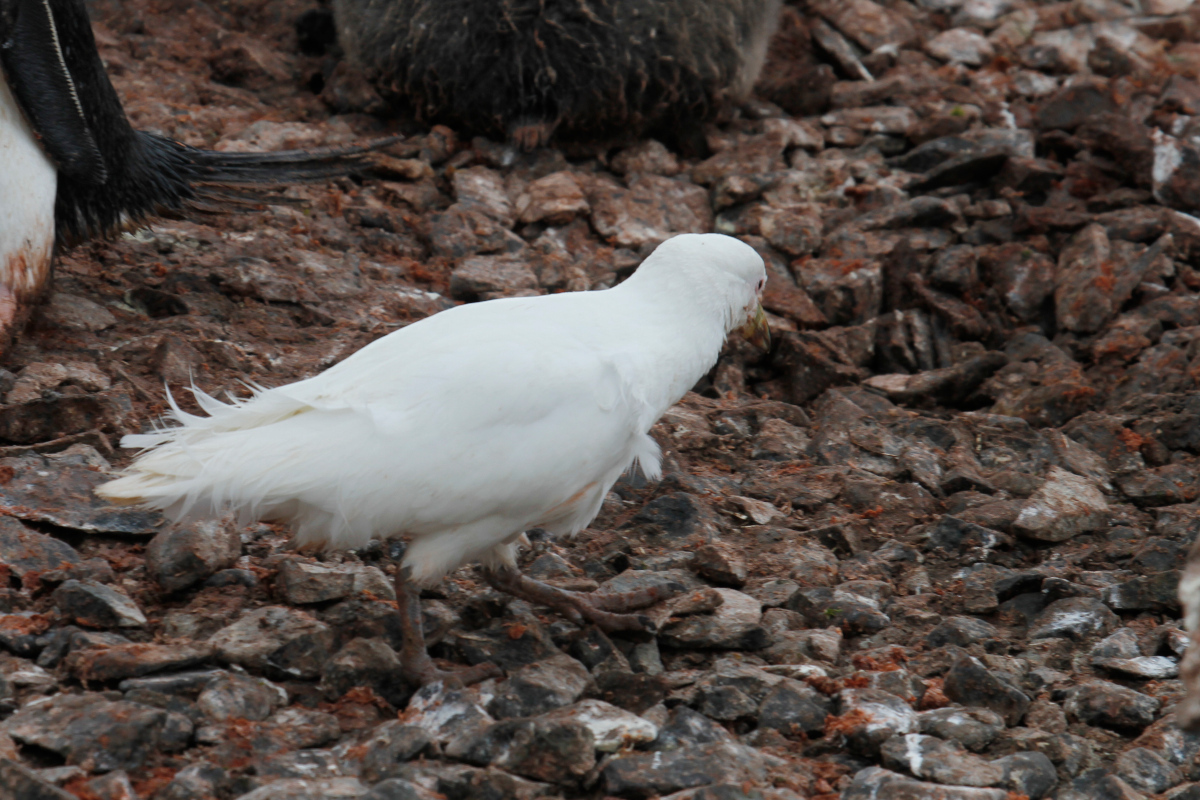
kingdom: Animalia
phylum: Chordata
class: Aves
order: Charadriiformes
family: Chionidae
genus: Chionis
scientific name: Chionis albus
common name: Snowy sheathbill
